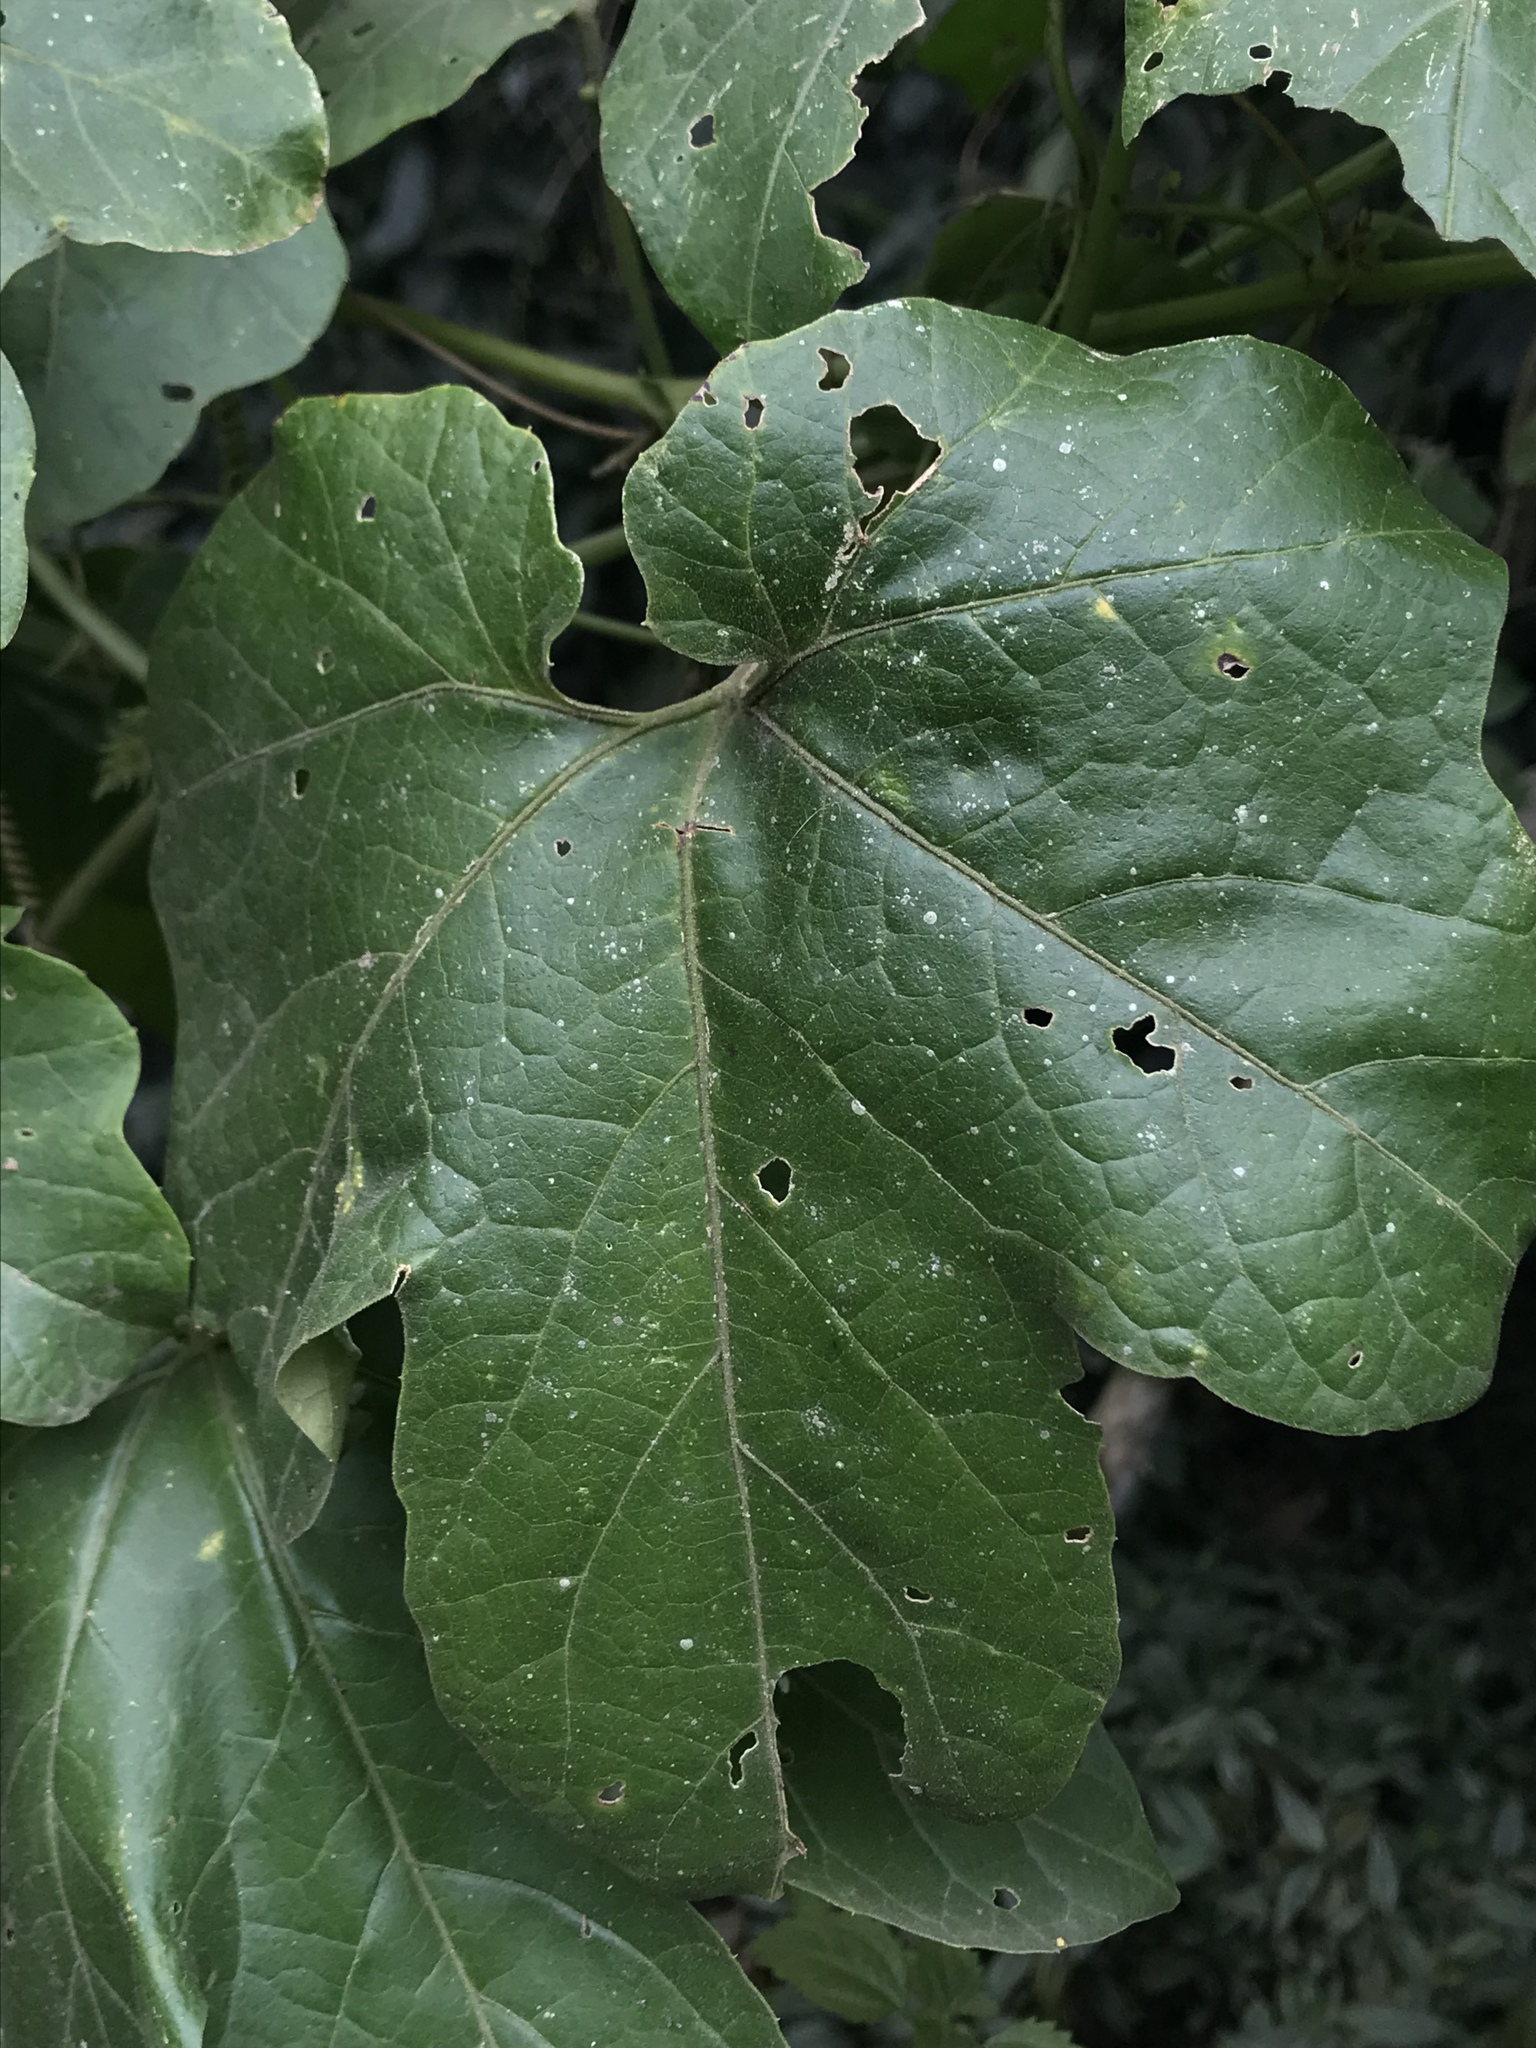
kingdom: Plantae
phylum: Tracheophyta
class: Magnoliopsida
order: Malpighiales
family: Passifloraceae
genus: Passiflora
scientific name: Passiflora adenopoda
